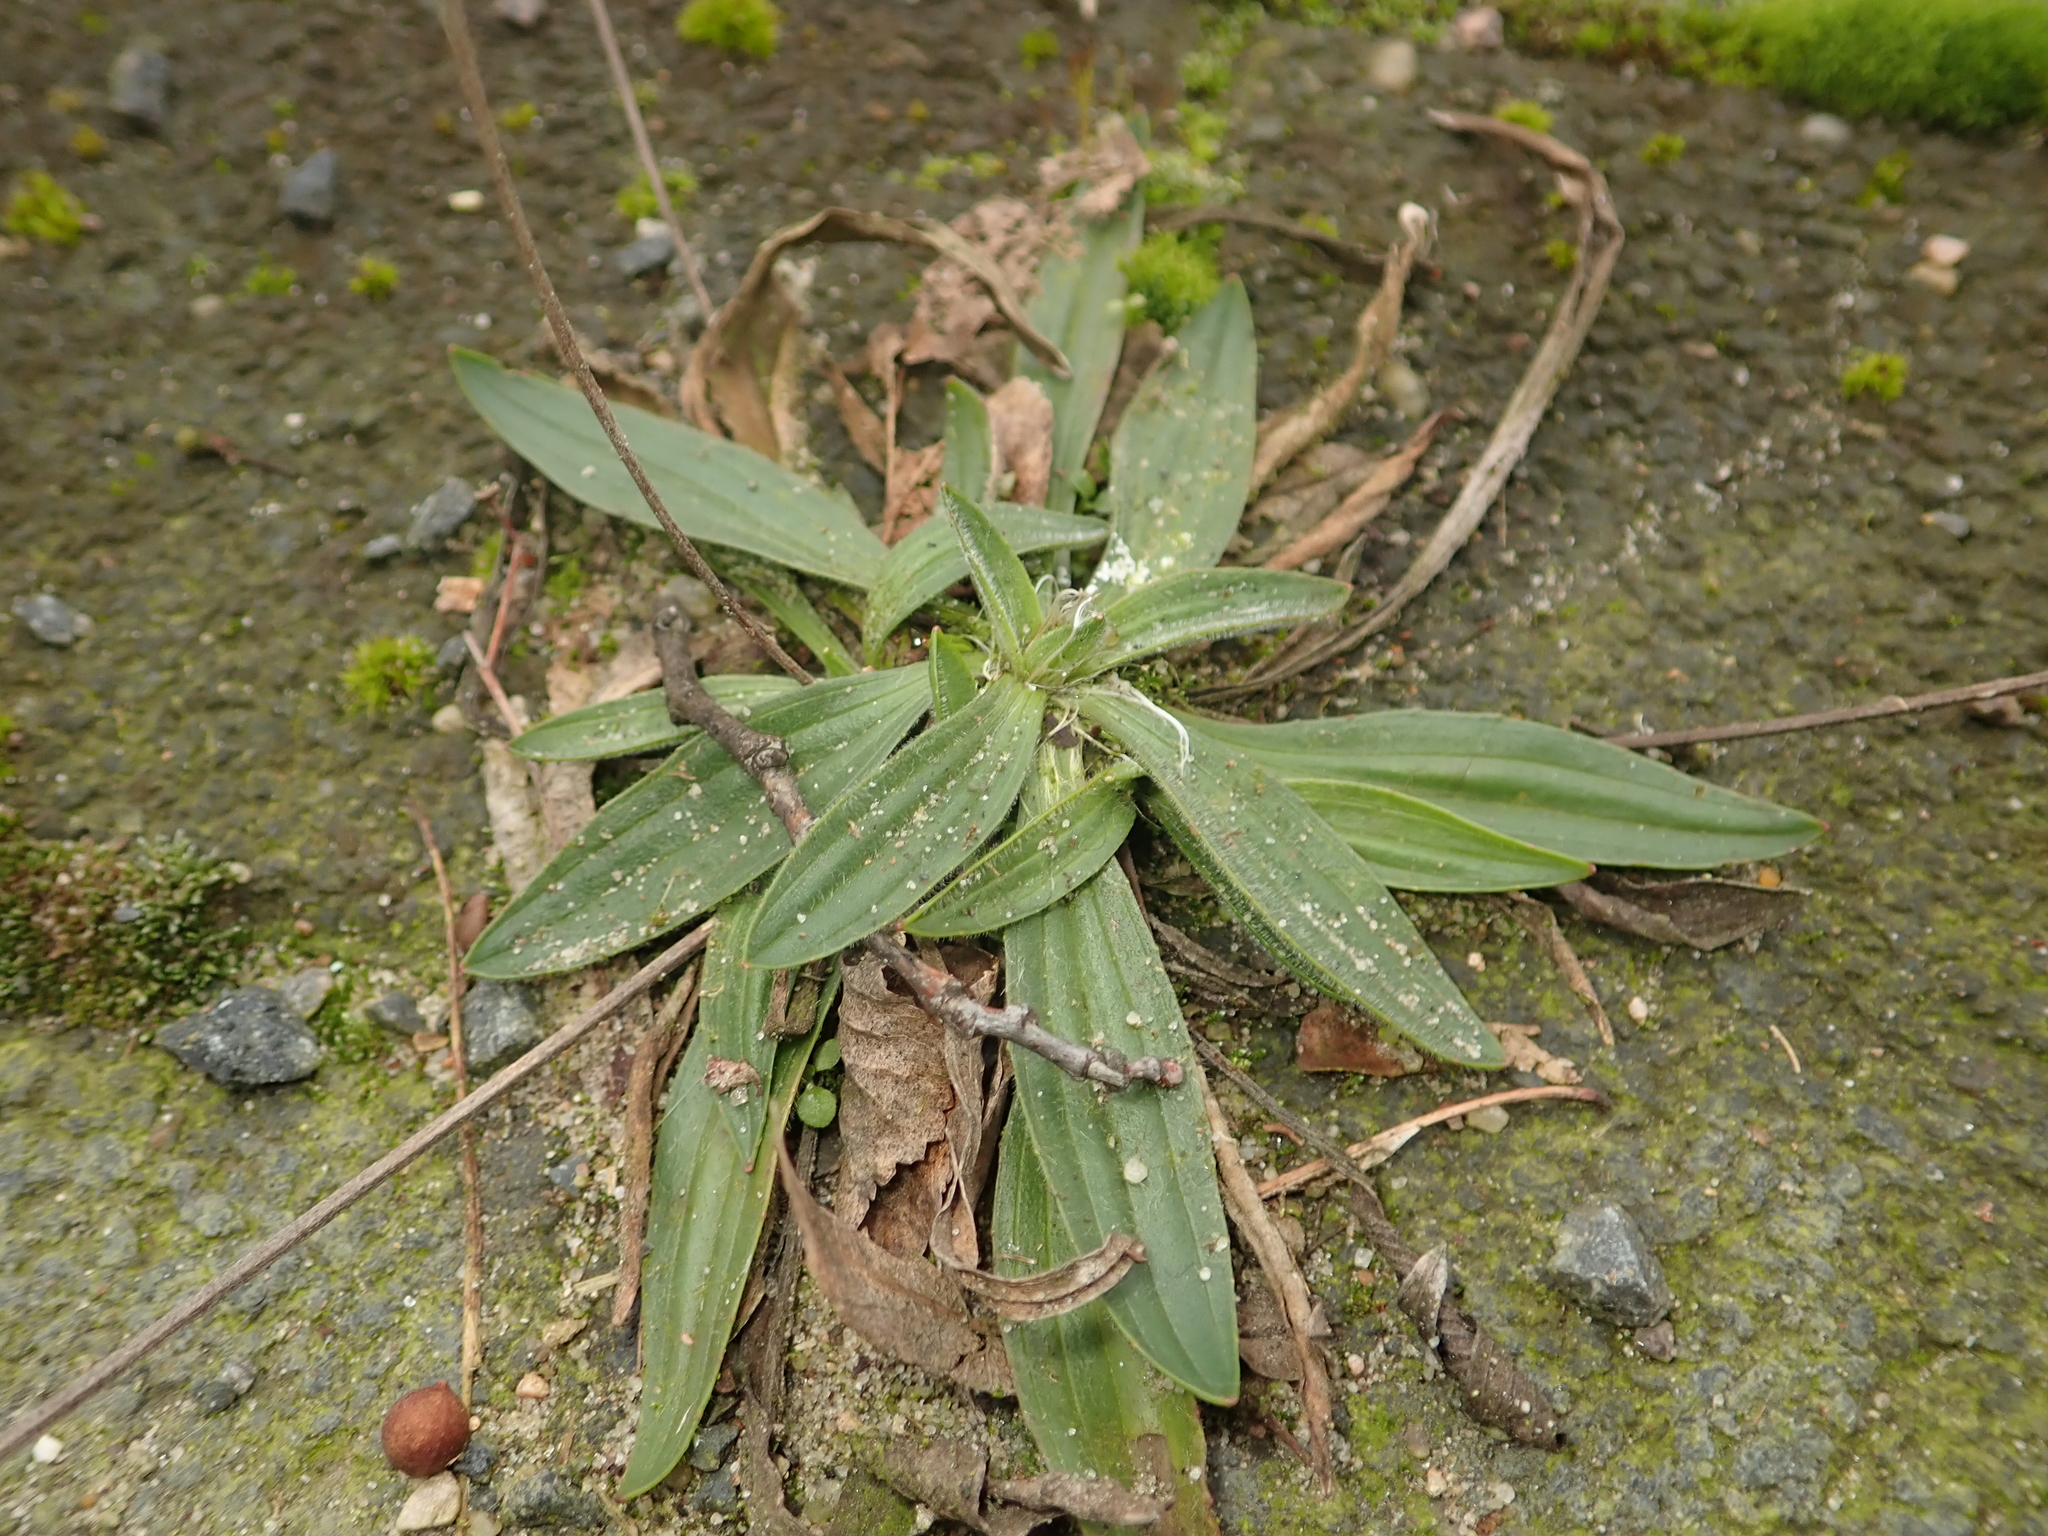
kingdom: Plantae
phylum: Tracheophyta
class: Magnoliopsida
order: Lamiales
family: Plantaginaceae
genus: Plantago
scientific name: Plantago lanceolata
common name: Ribwort plantain
